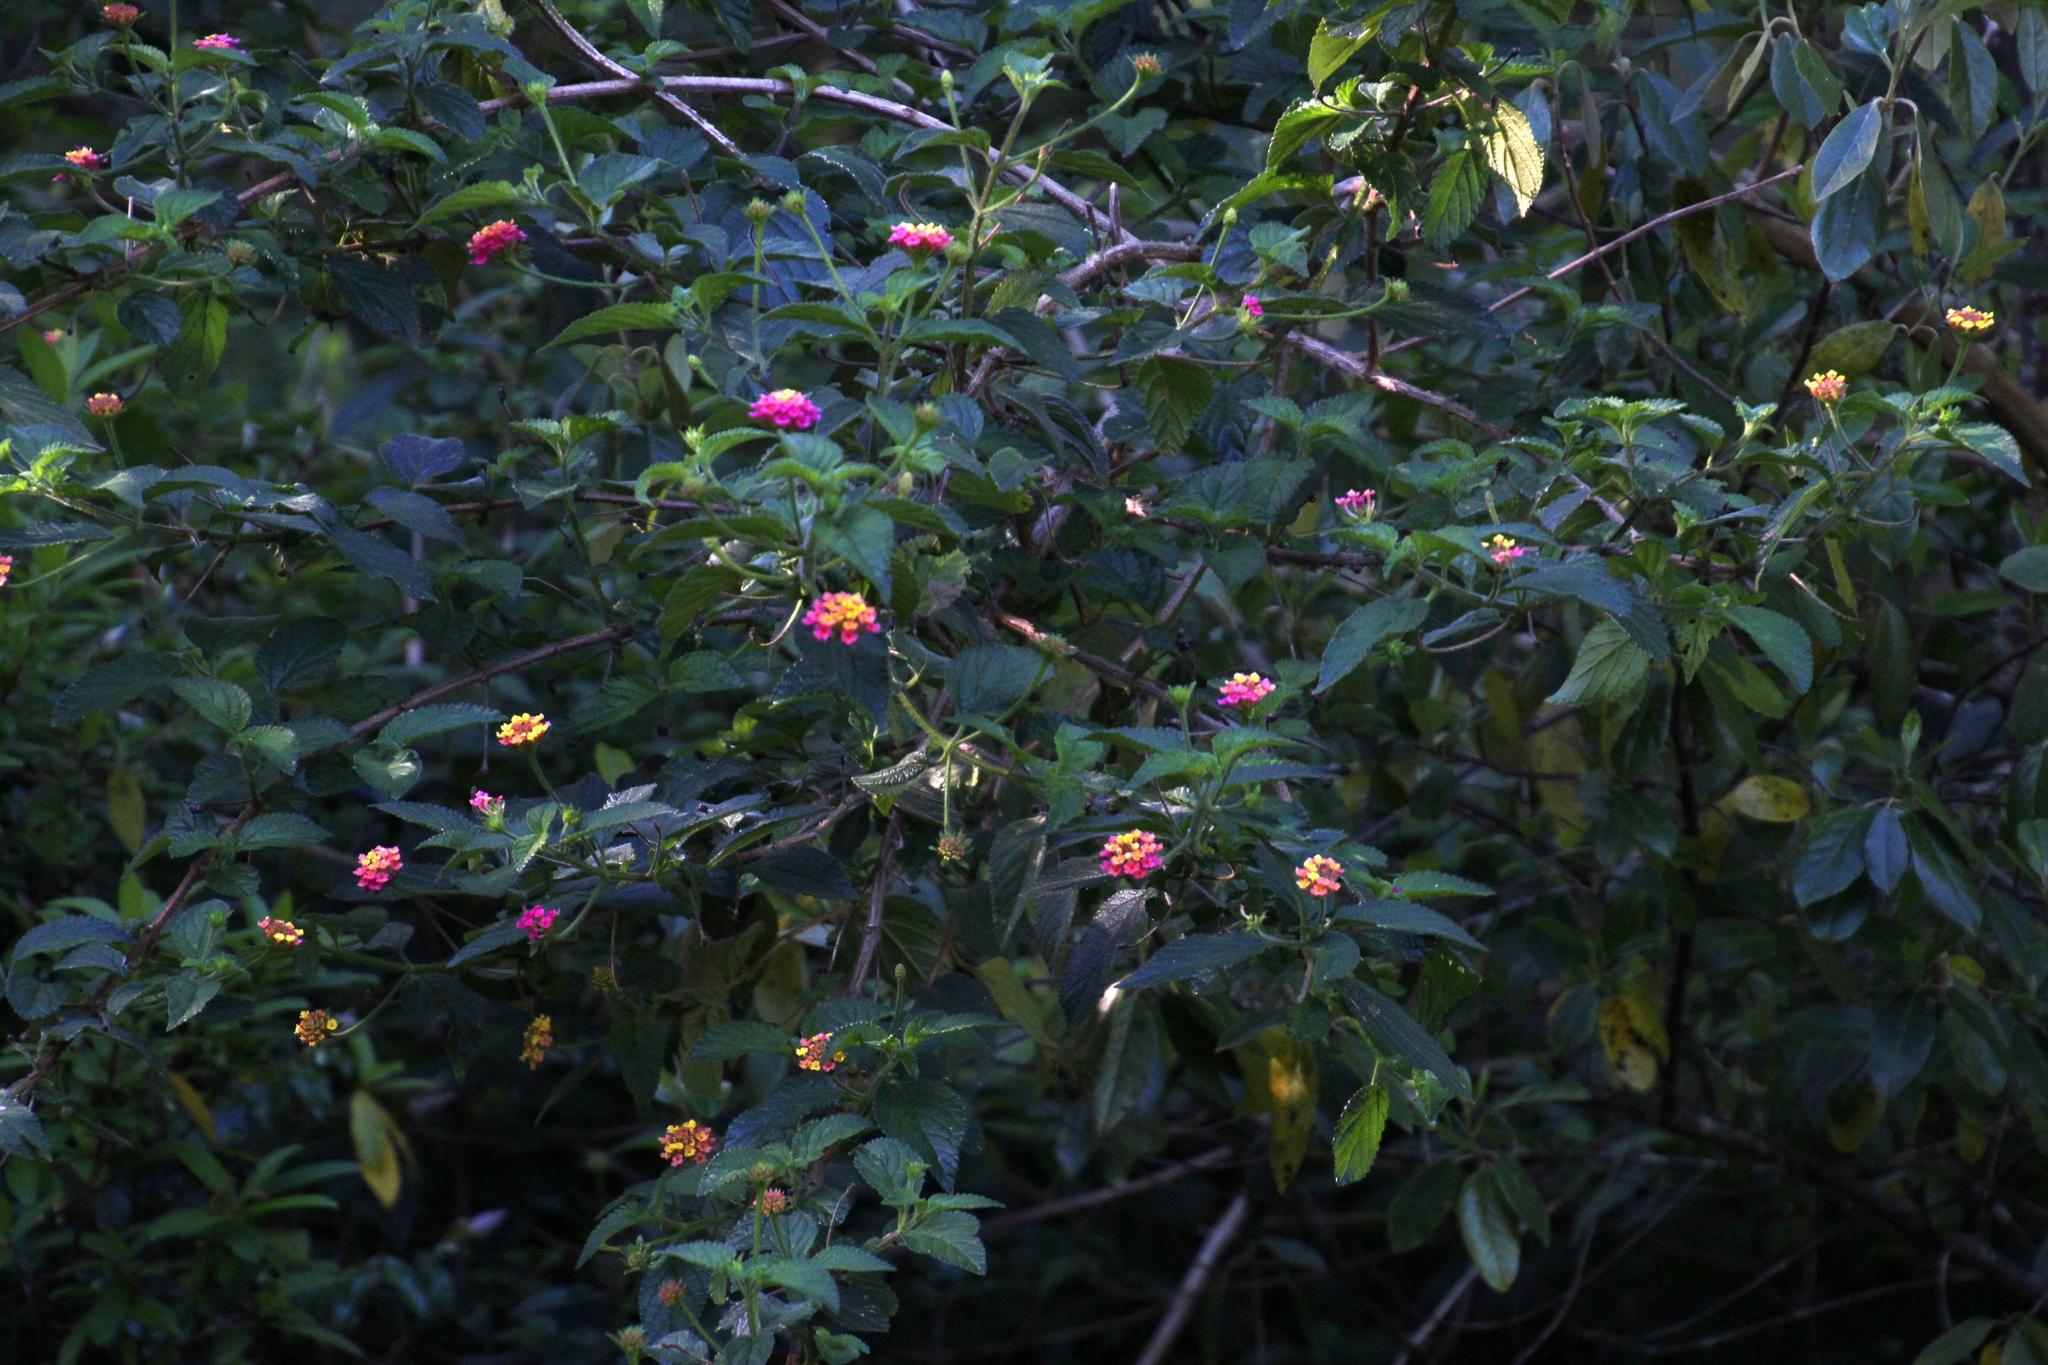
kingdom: Plantae
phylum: Tracheophyta
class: Magnoliopsida
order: Lamiales
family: Verbenaceae
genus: Lantana
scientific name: Lantana camara
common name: Lantana
